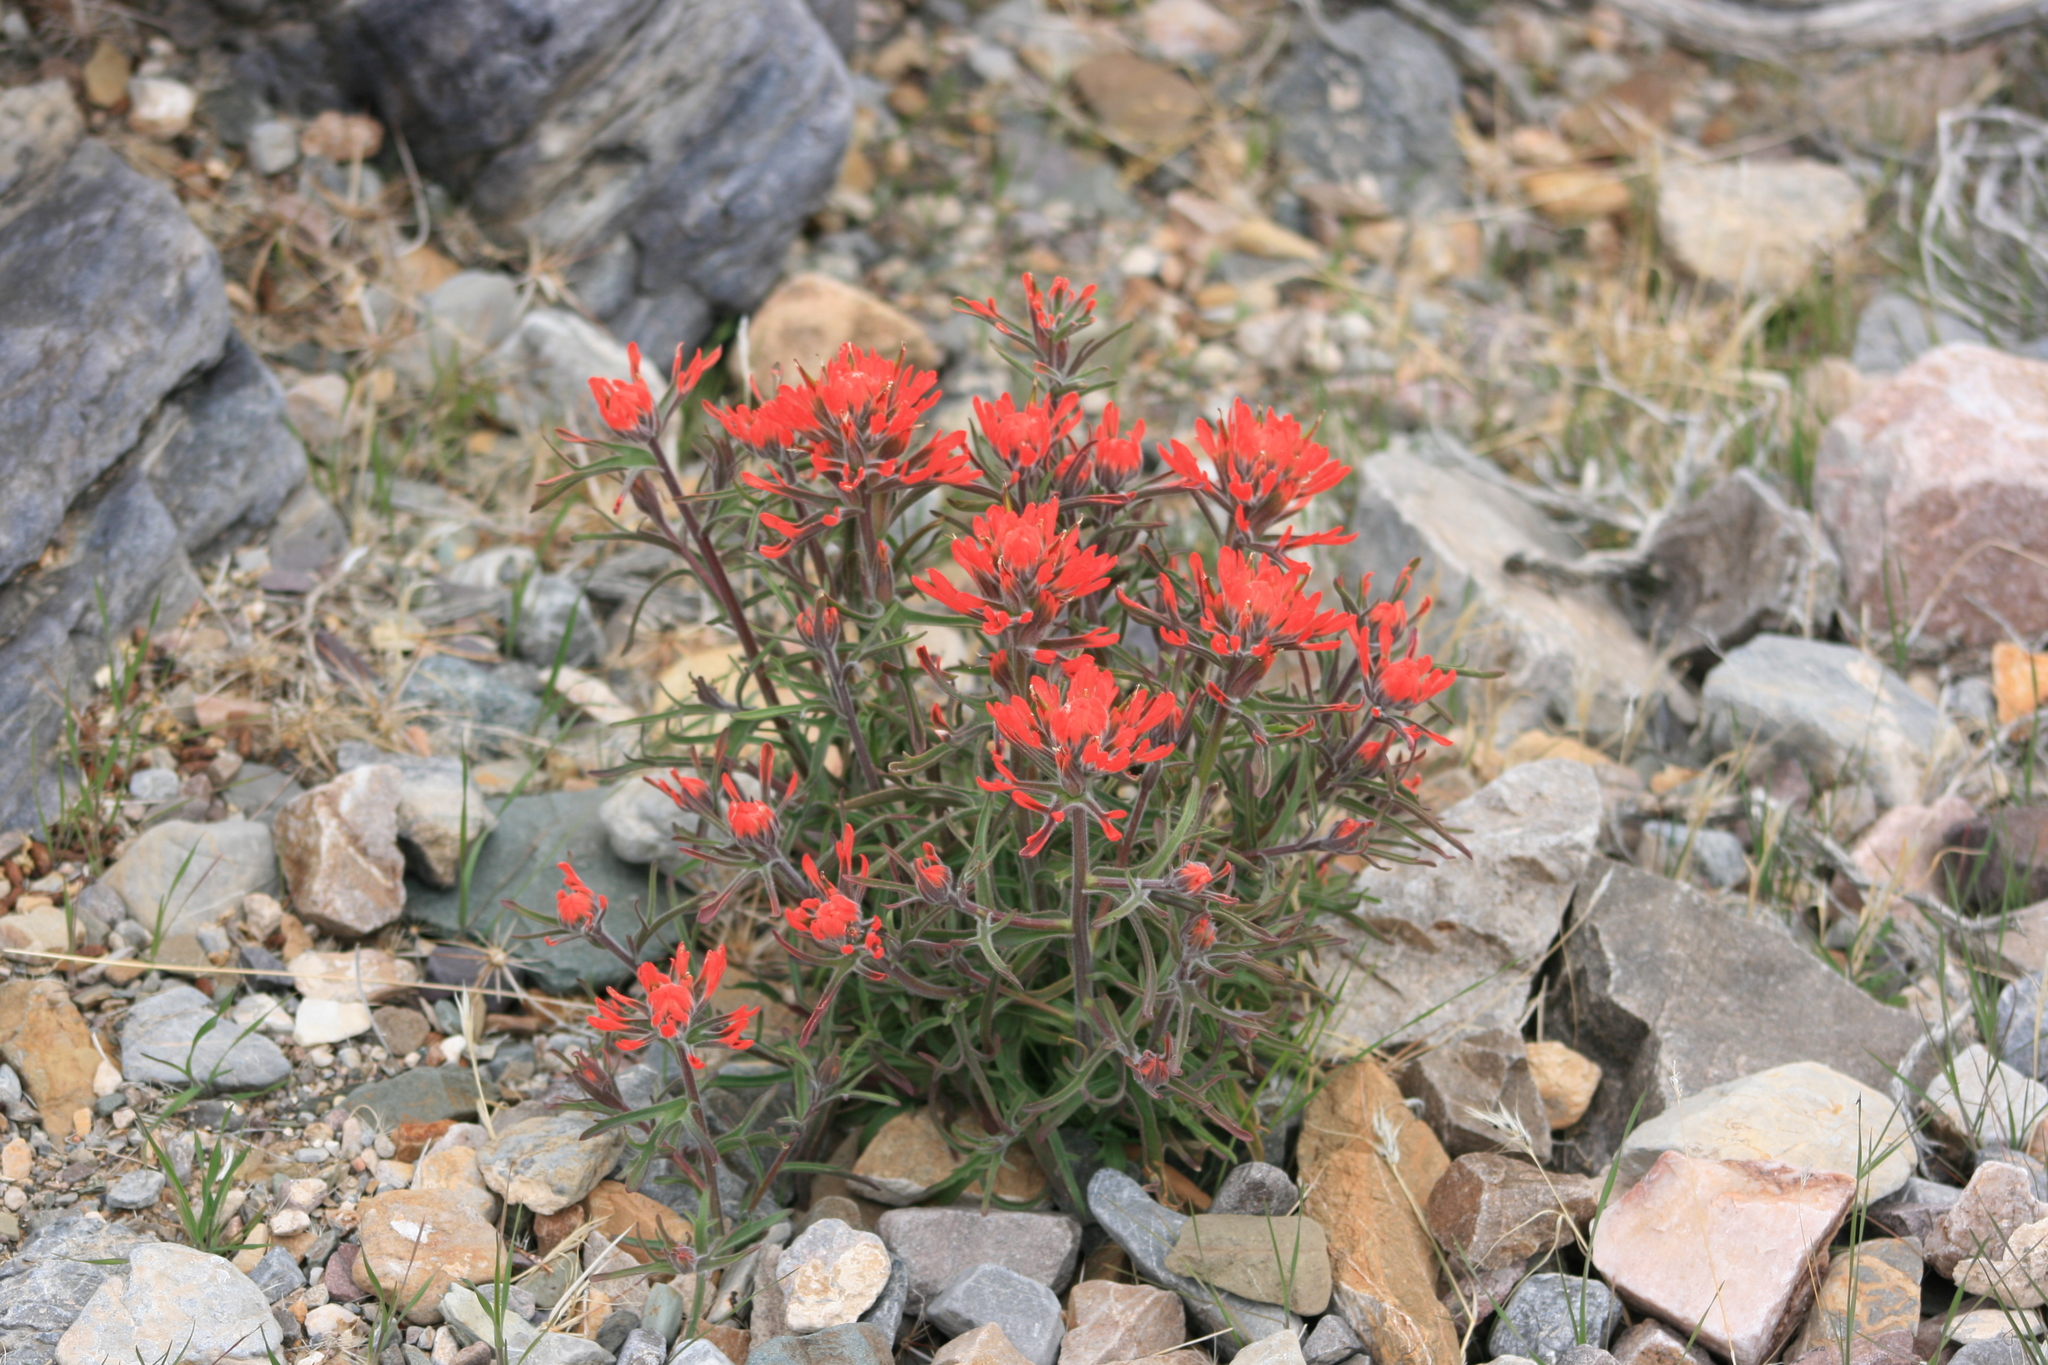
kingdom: Plantae
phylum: Tracheophyta
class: Magnoliopsida
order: Lamiales
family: Orobanchaceae
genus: Castilleja
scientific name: Castilleja chromosa
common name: Desert paintbrush
